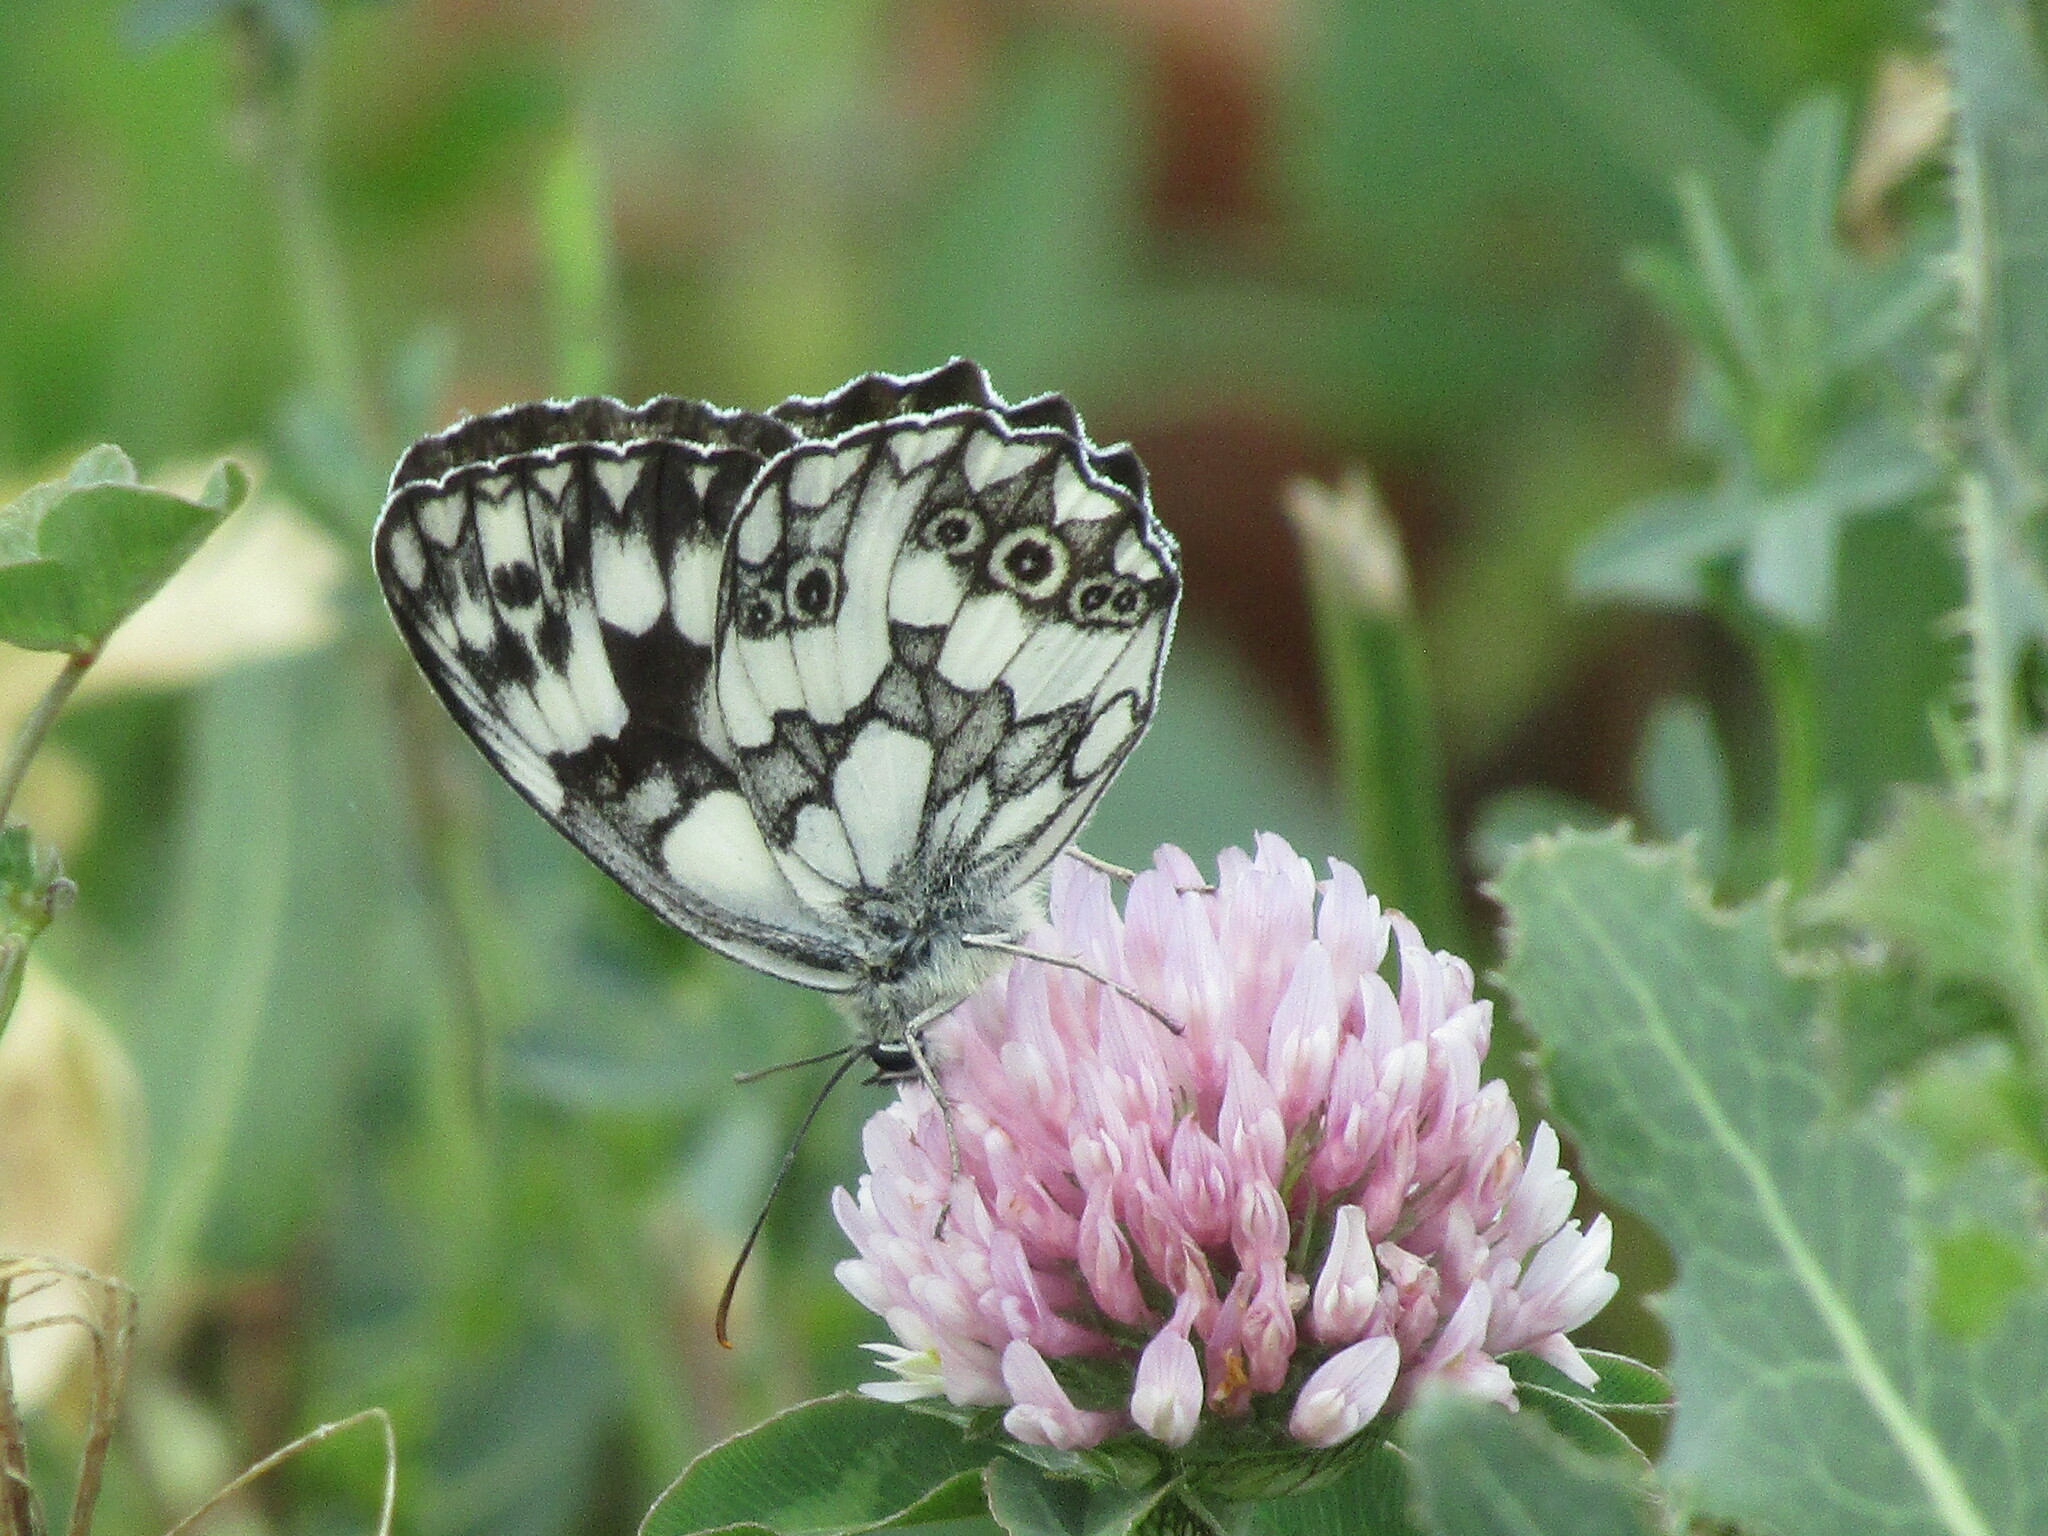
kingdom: Animalia
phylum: Arthropoda
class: Insecta
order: Lepidoptera
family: Nymphalidae
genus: Melanargia
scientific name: Melanargia galathea
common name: Marbled white
